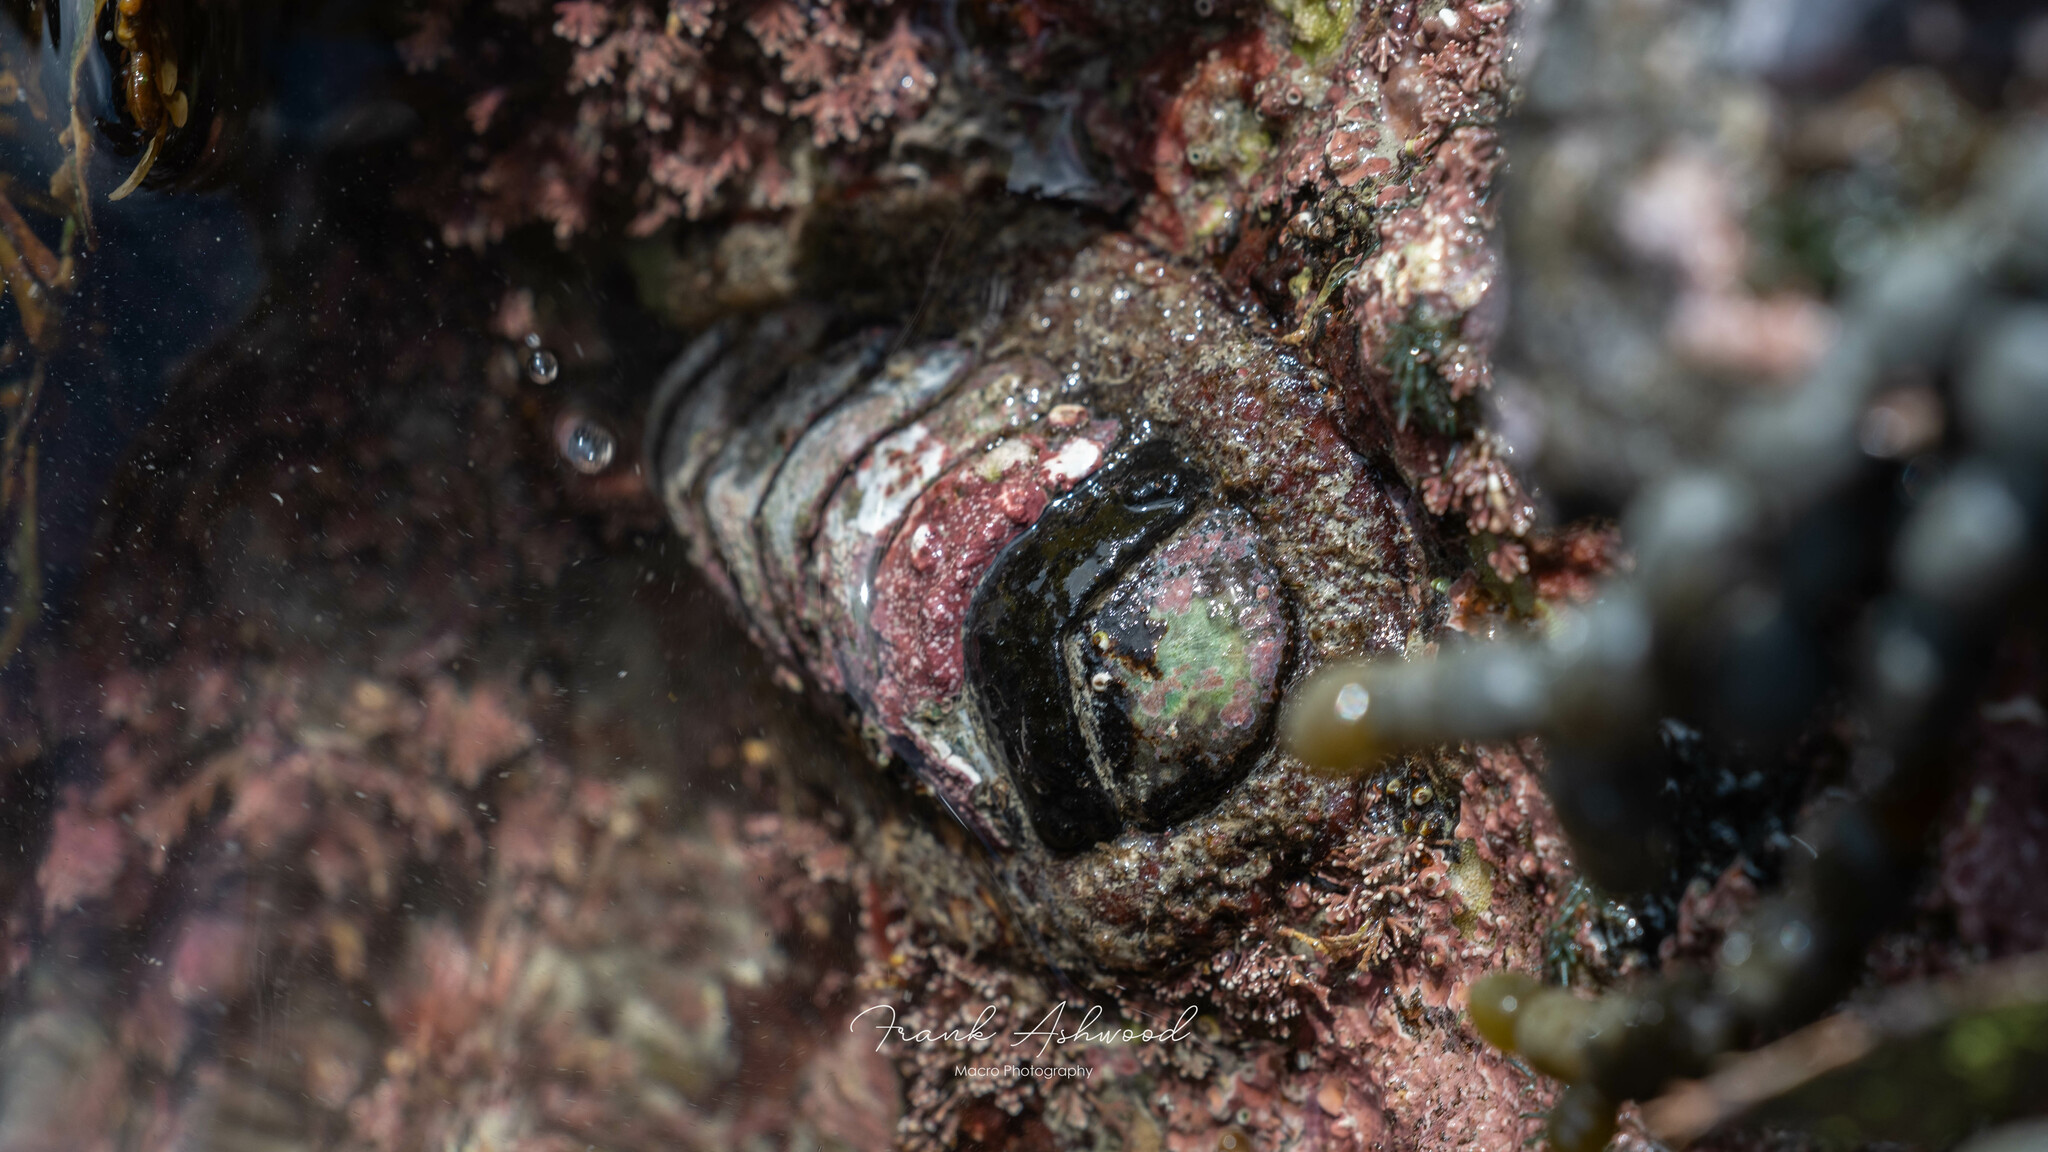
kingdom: Animalia
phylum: Mollusca
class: Polyplacophora
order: Callochitonida
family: Callochitonidae
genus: Eudoxochiton
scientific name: Eudoxochiton nobilis
